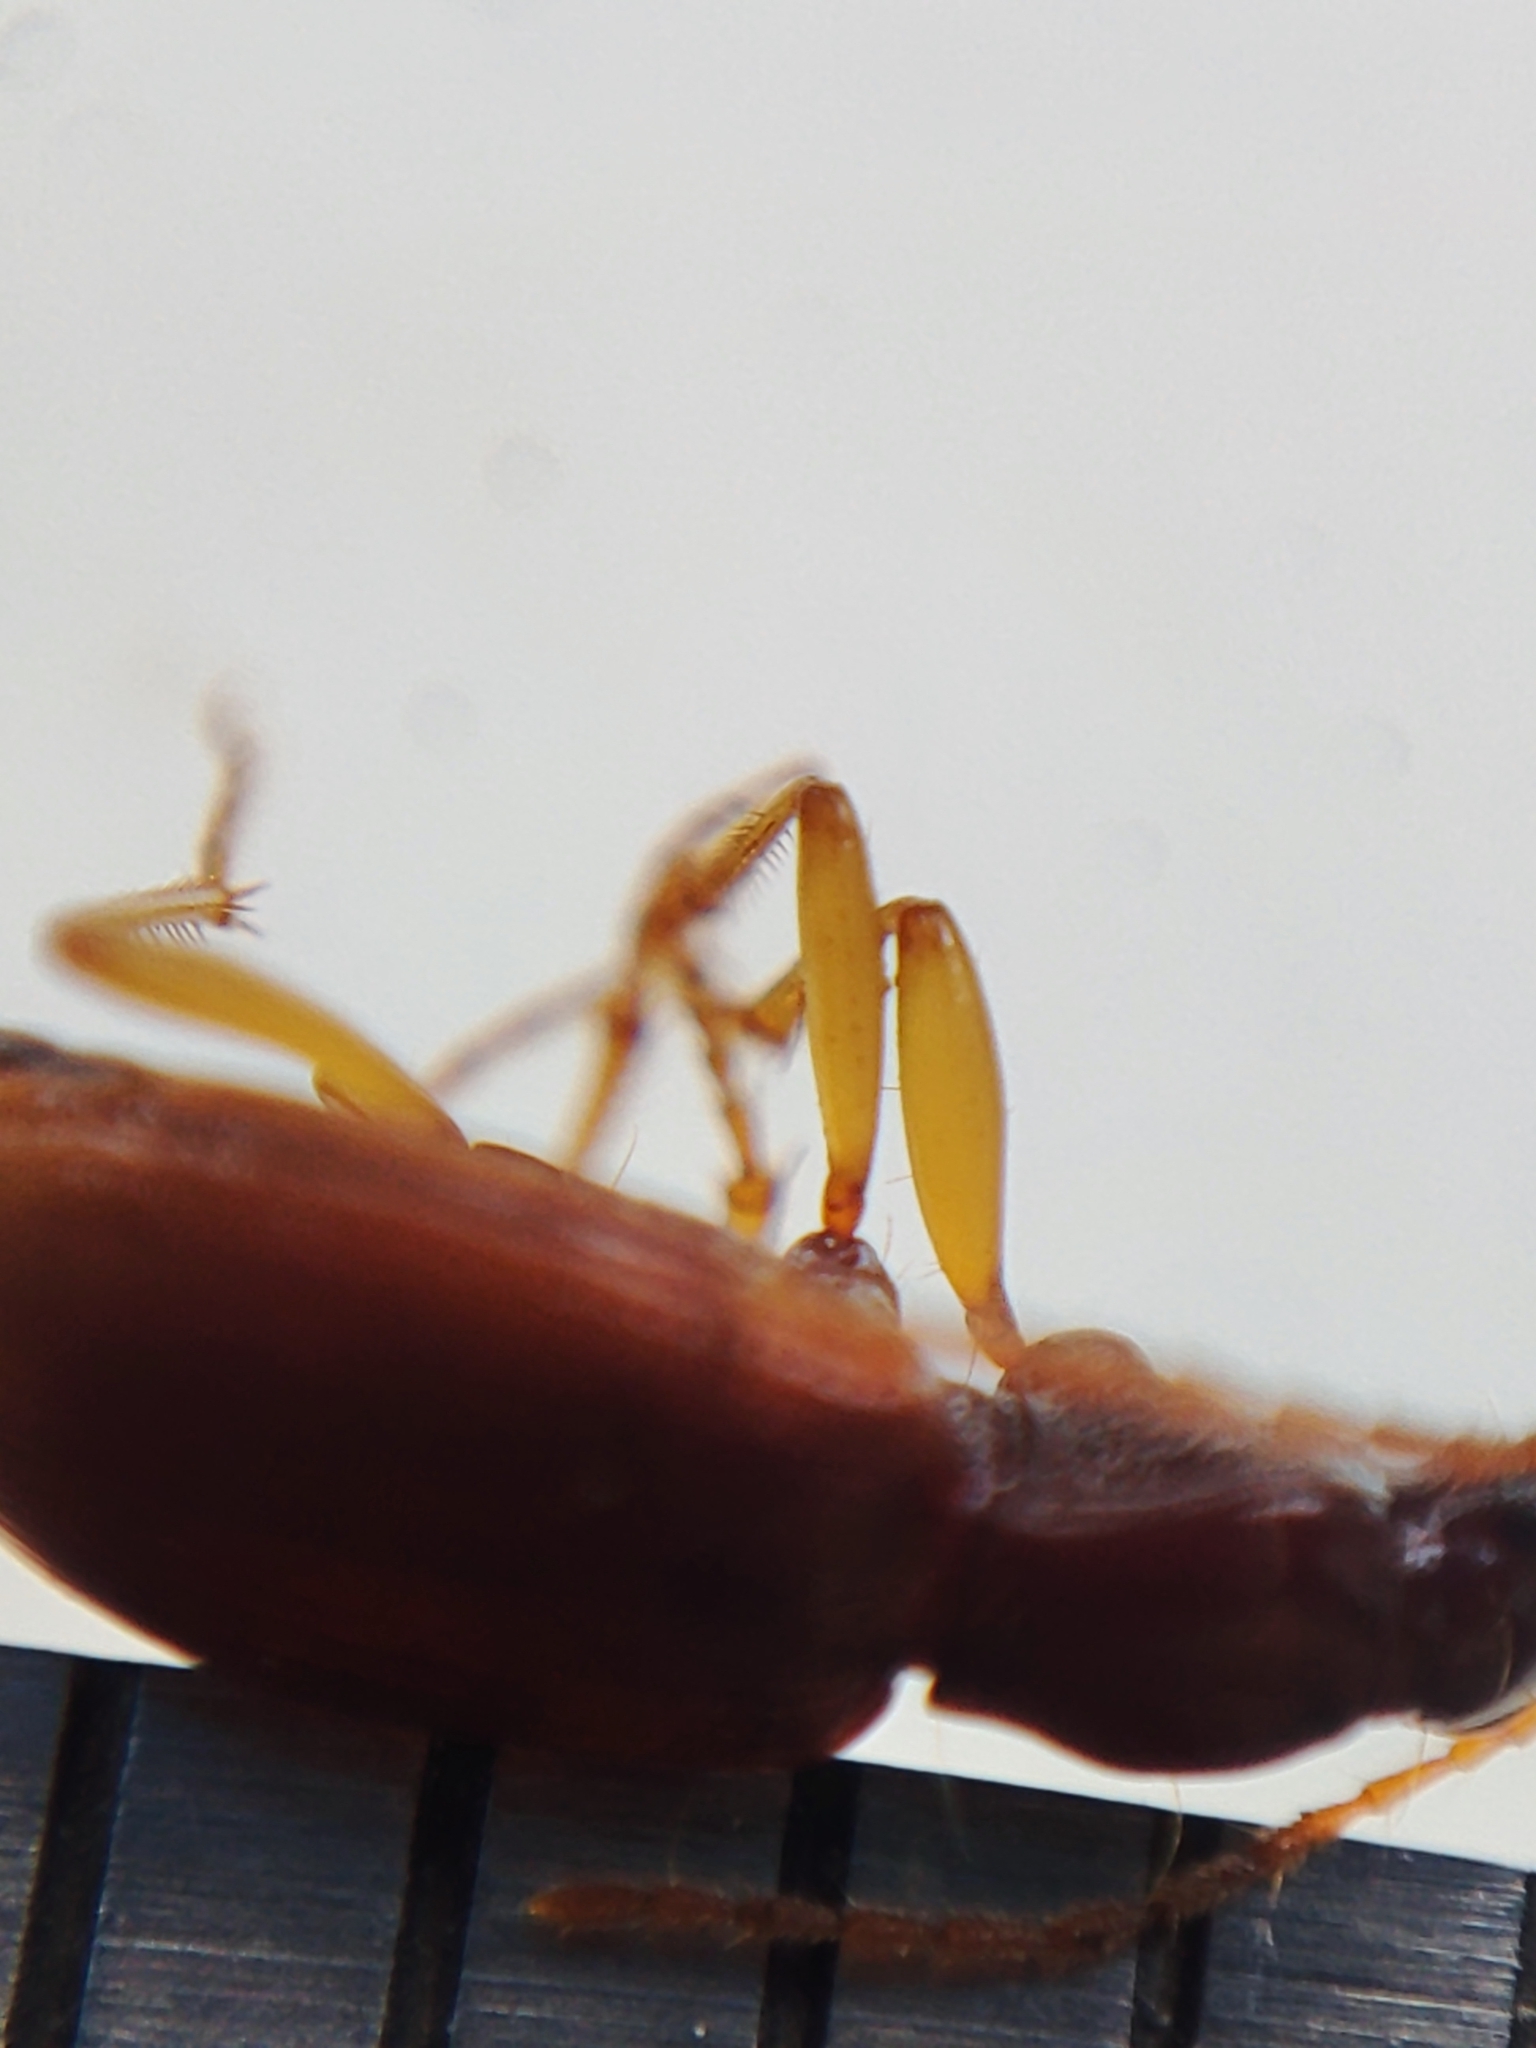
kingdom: Animalia
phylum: Arthropoda
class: Insecta
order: Coleoptera
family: Carabidae
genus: Oxypselaphus
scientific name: Oxypselaphus obscurus
